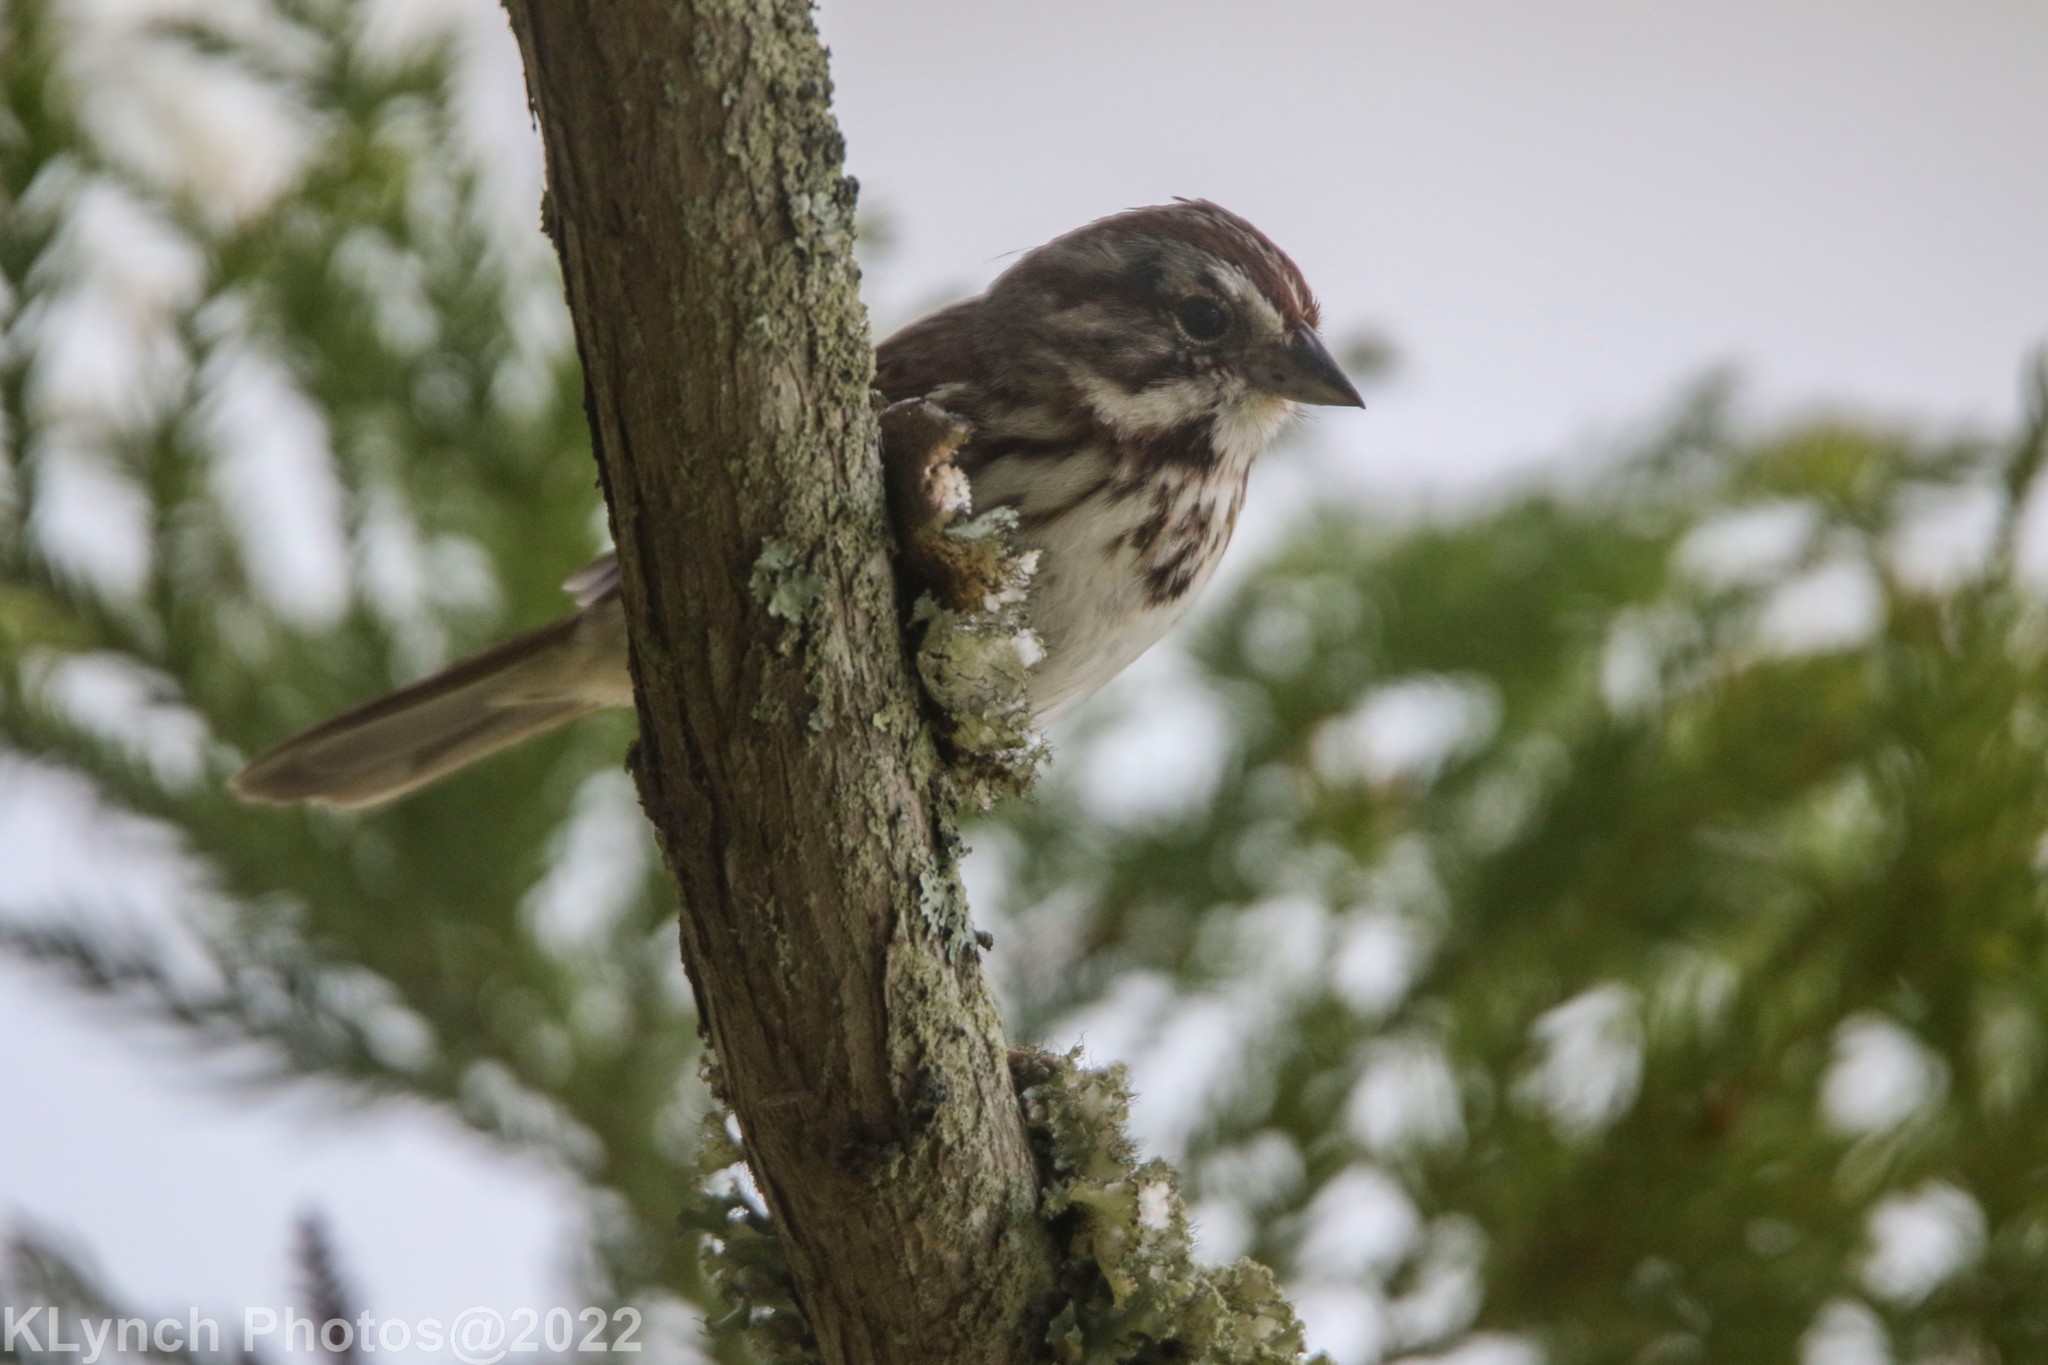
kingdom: Animalia
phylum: Chordata
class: Aves
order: Passeriformes
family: Passerellidae
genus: Melospiza
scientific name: Melospiza melodia
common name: Song sparrow
